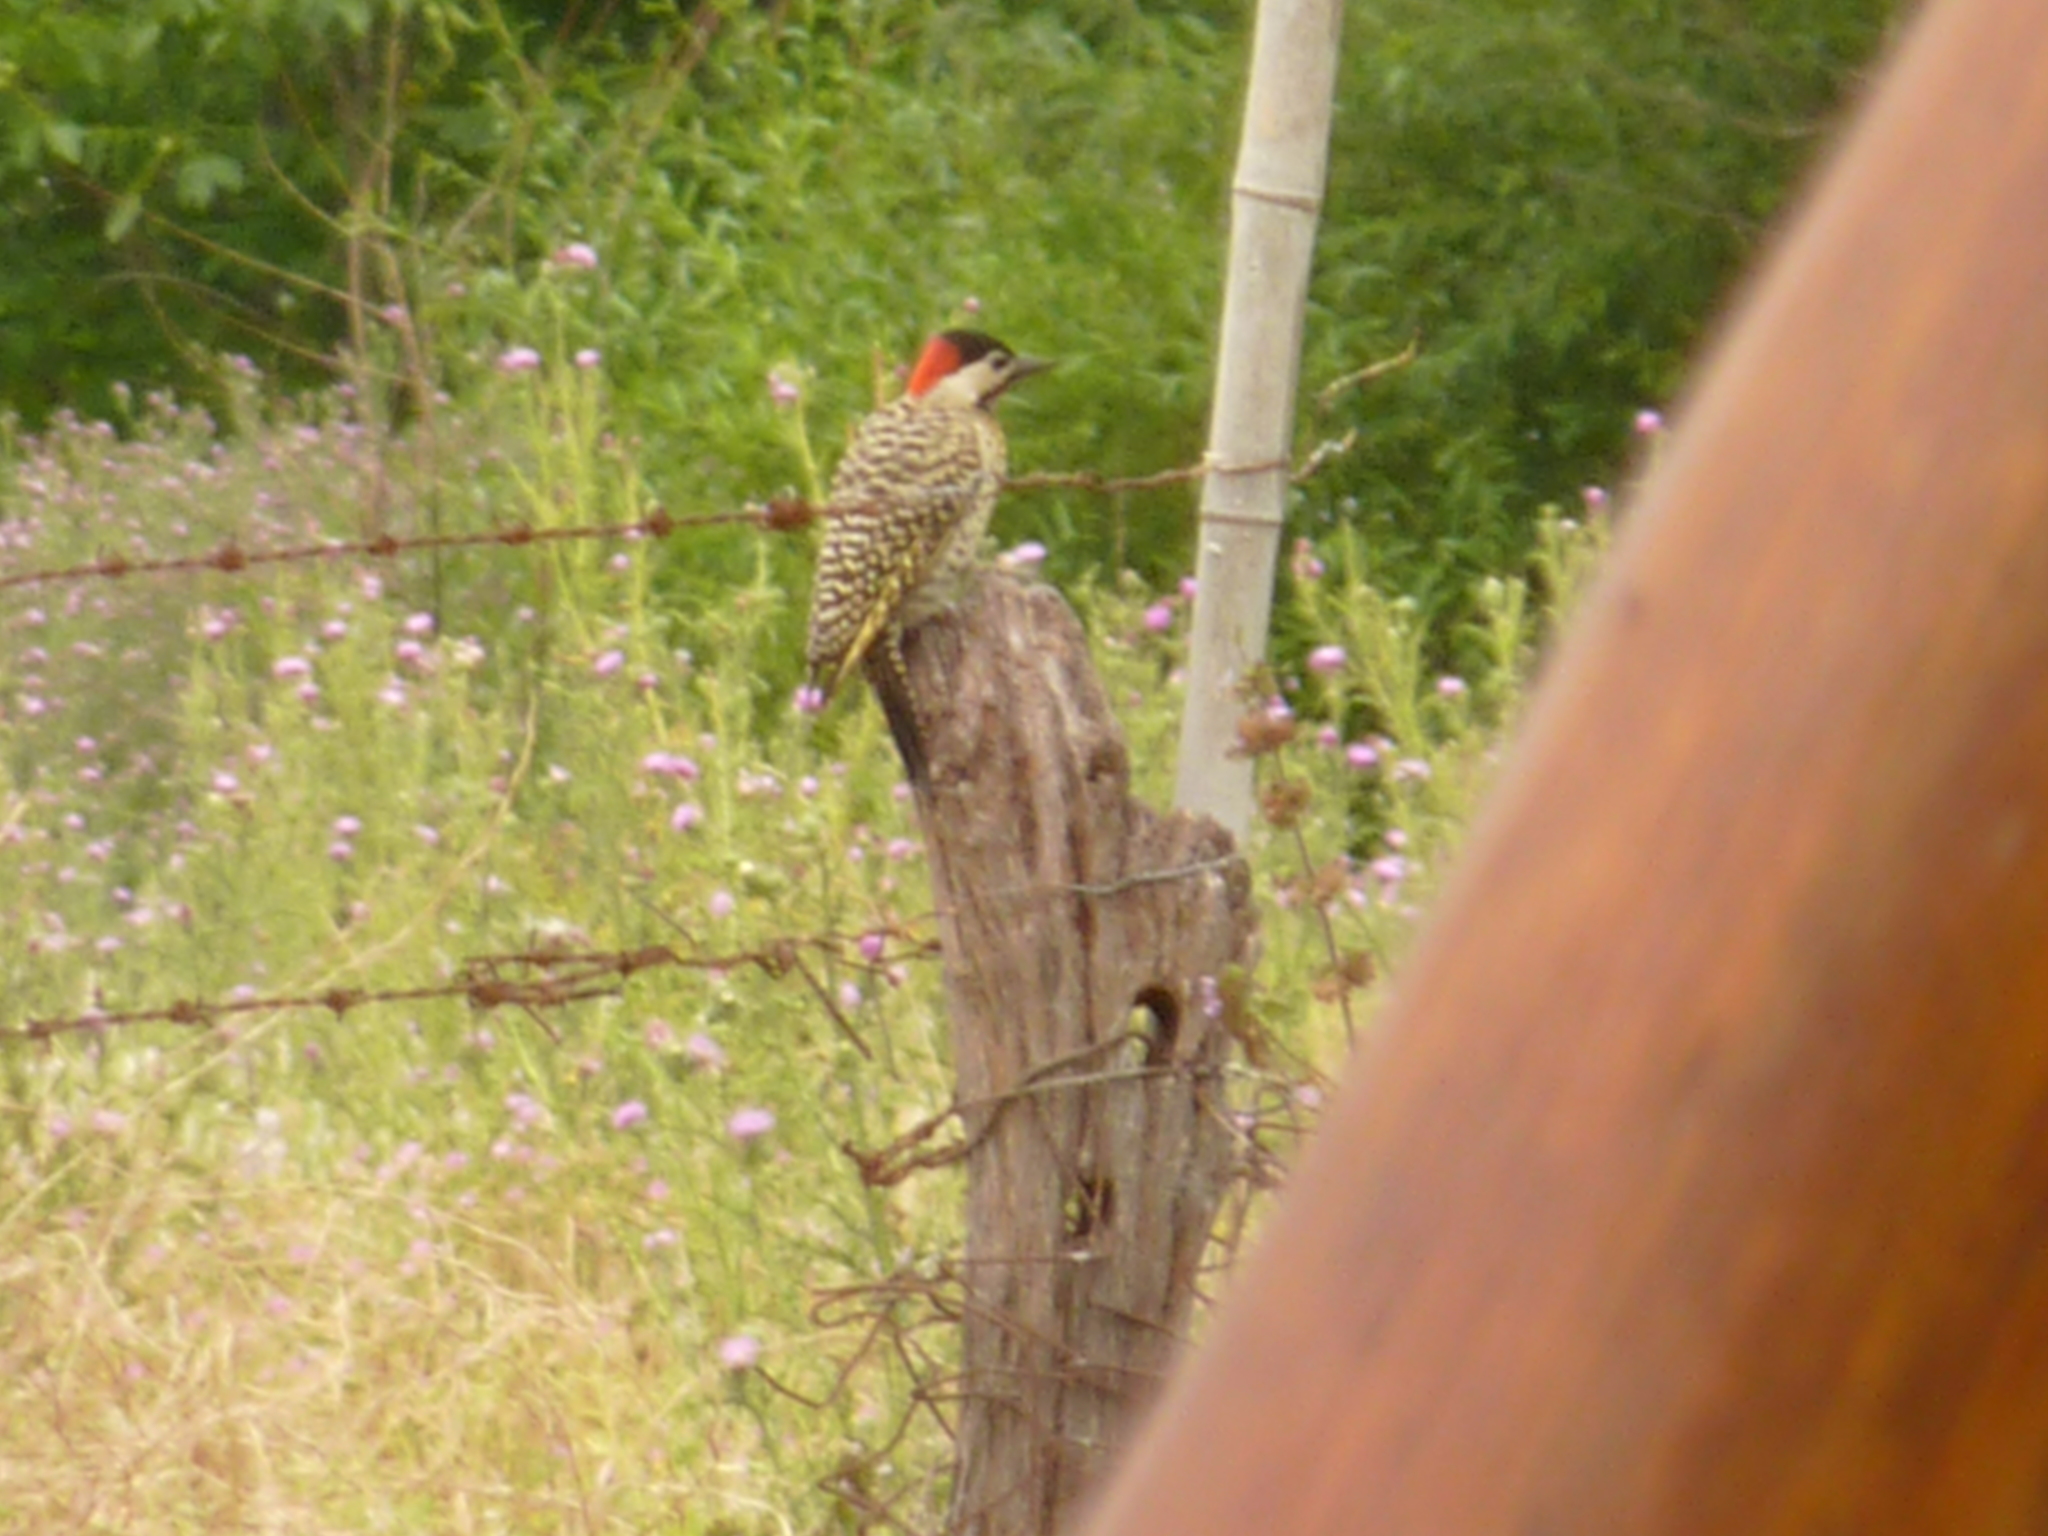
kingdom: Animalia
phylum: Chordata
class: Aves
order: Piciformes
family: Picidae
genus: Colaptes
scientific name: Colaptes melanochloros
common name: Green-barred woodpecker
